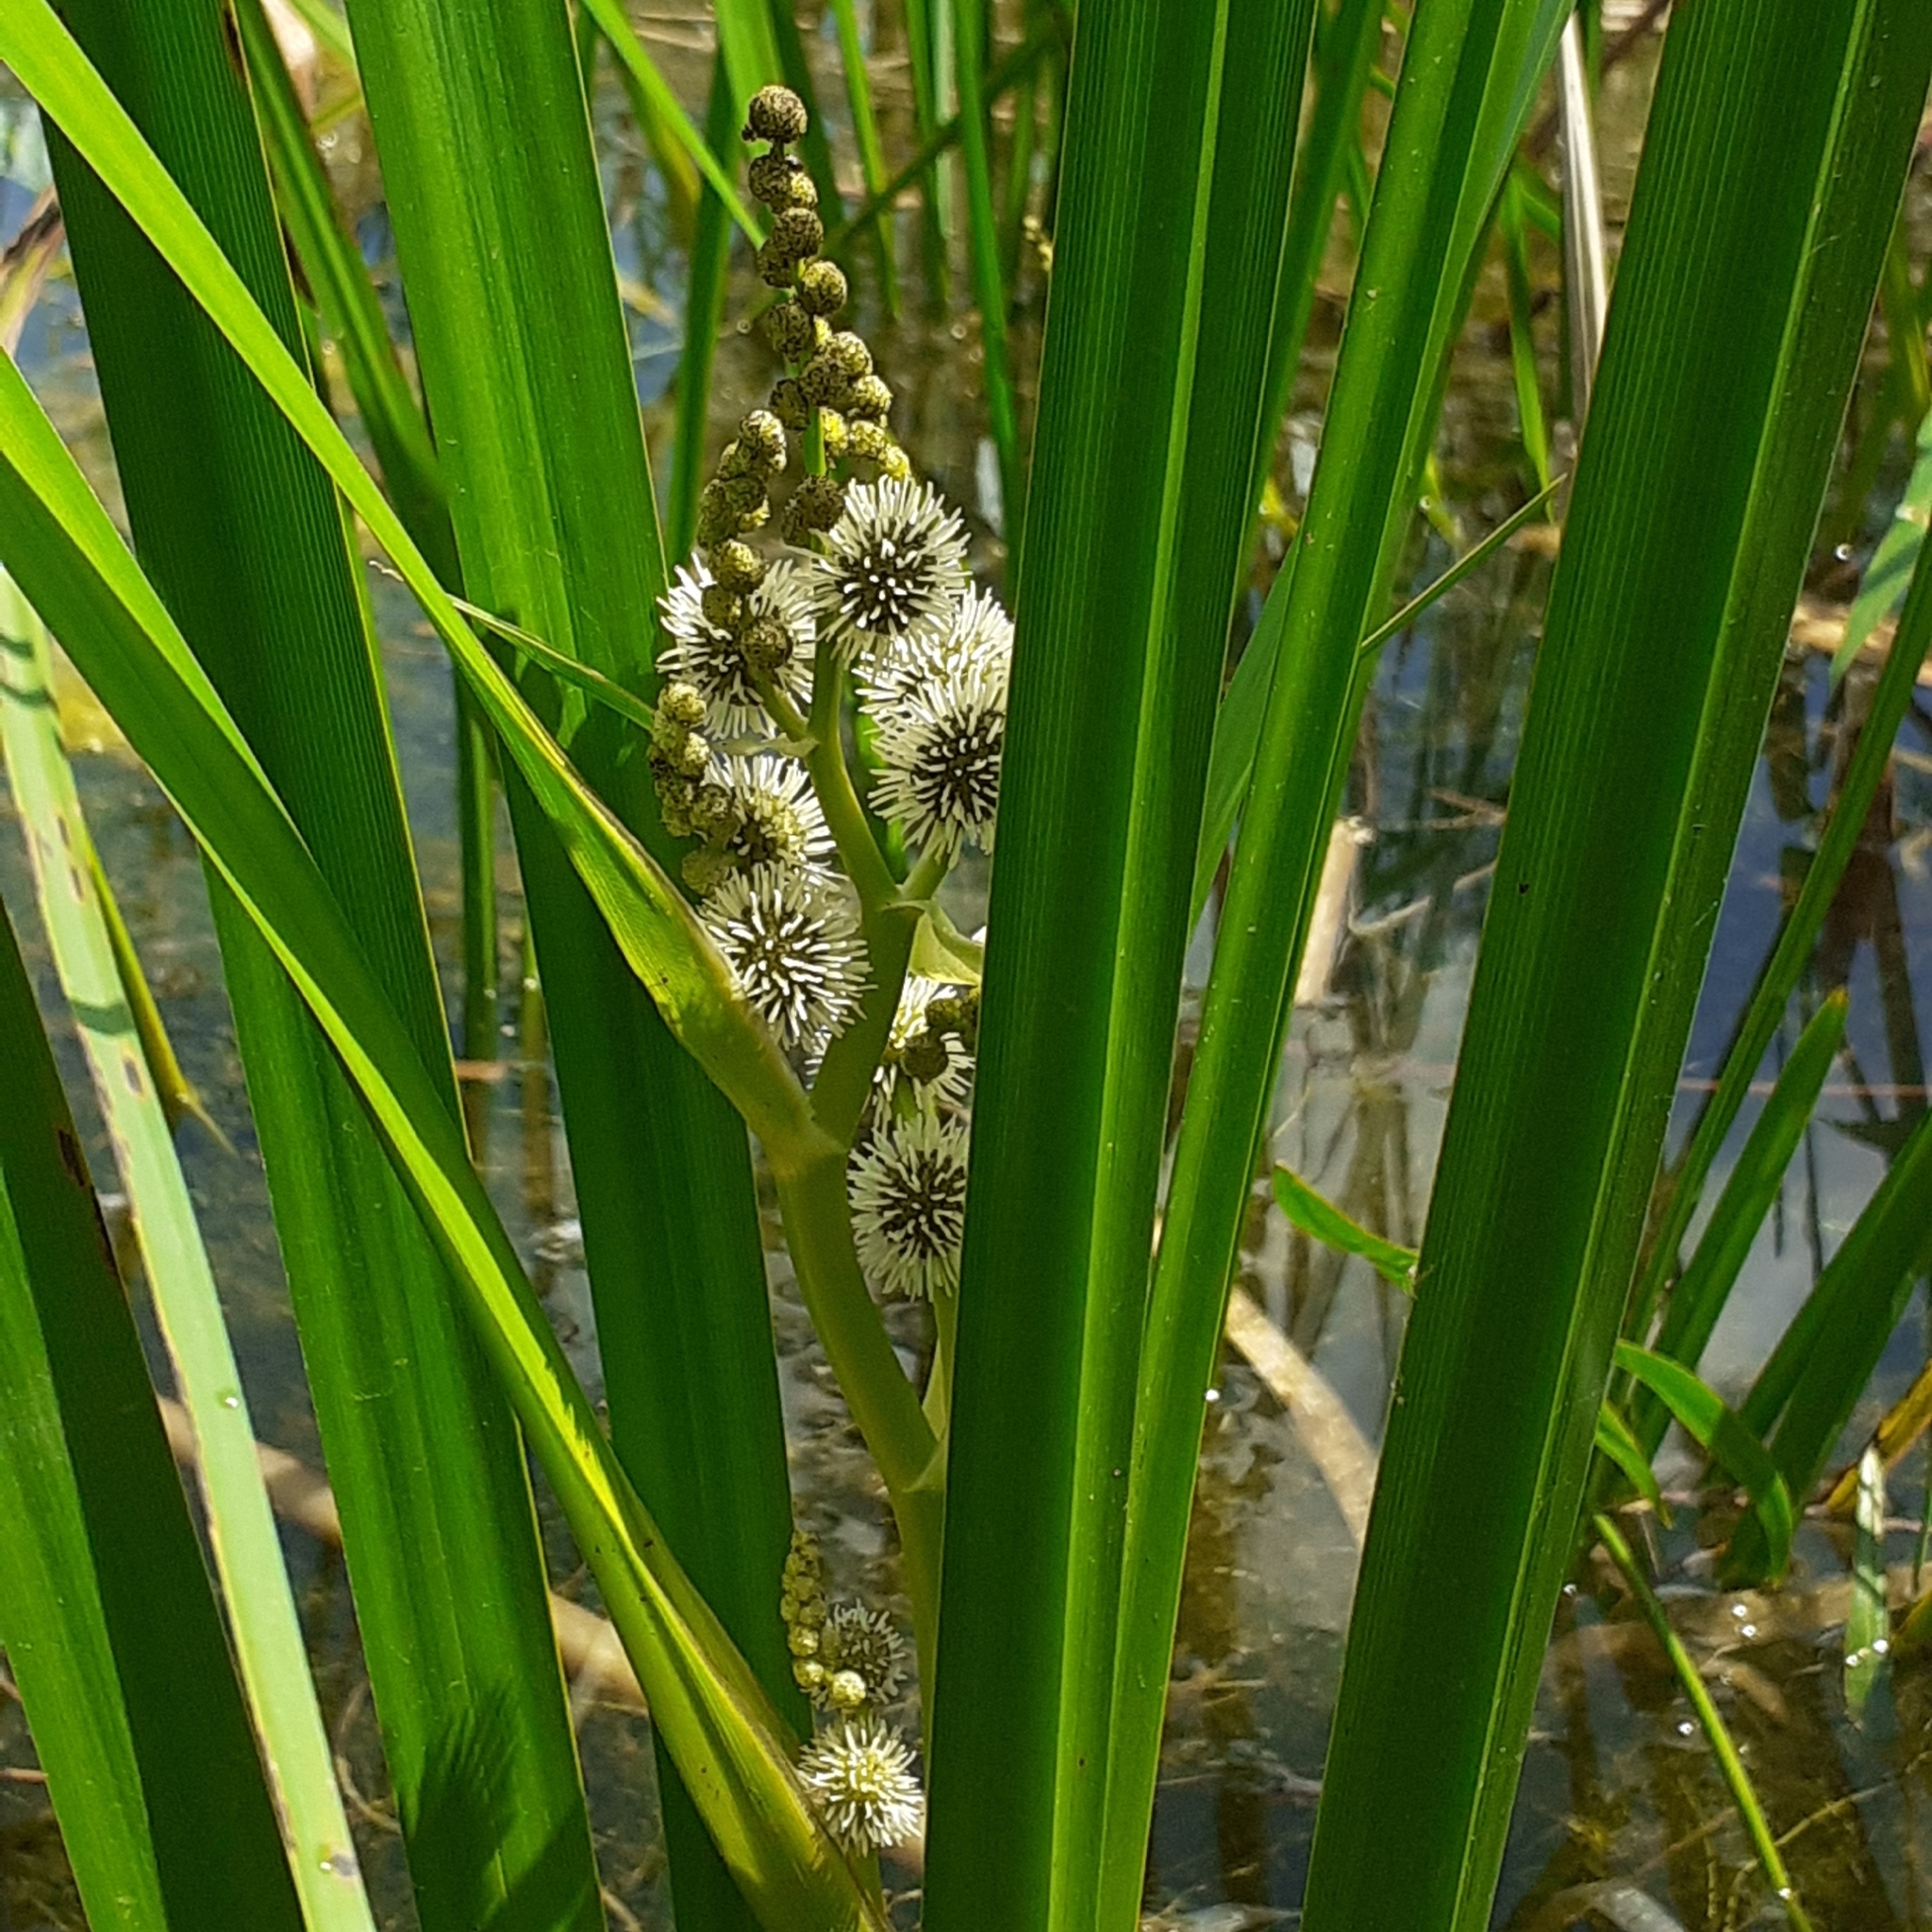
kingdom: Plantae
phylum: Tracheophyta
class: Liliopsida
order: Poales
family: Typhaceae
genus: Sparganium
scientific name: Sparganium erectum
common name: Branched bur-reed
